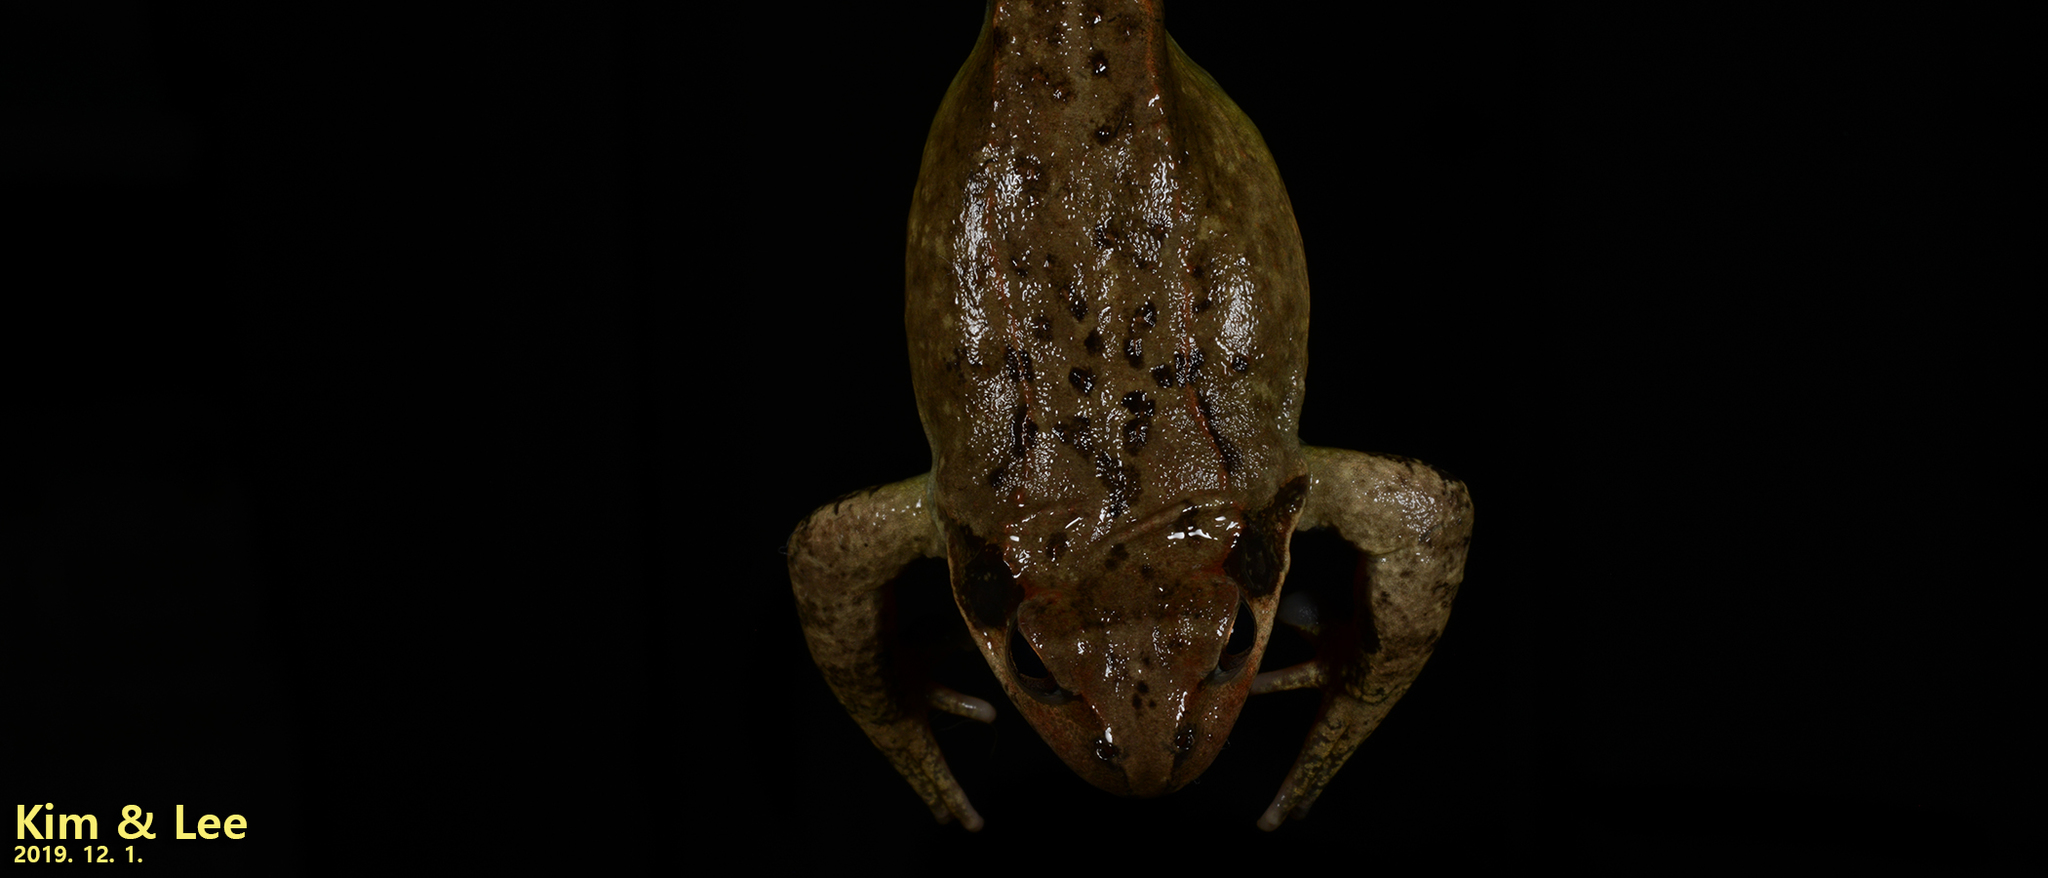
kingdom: Animalia
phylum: Chordata
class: Amphibia
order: Anura
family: Ranidae
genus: Rana
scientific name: Rana dybowskii
